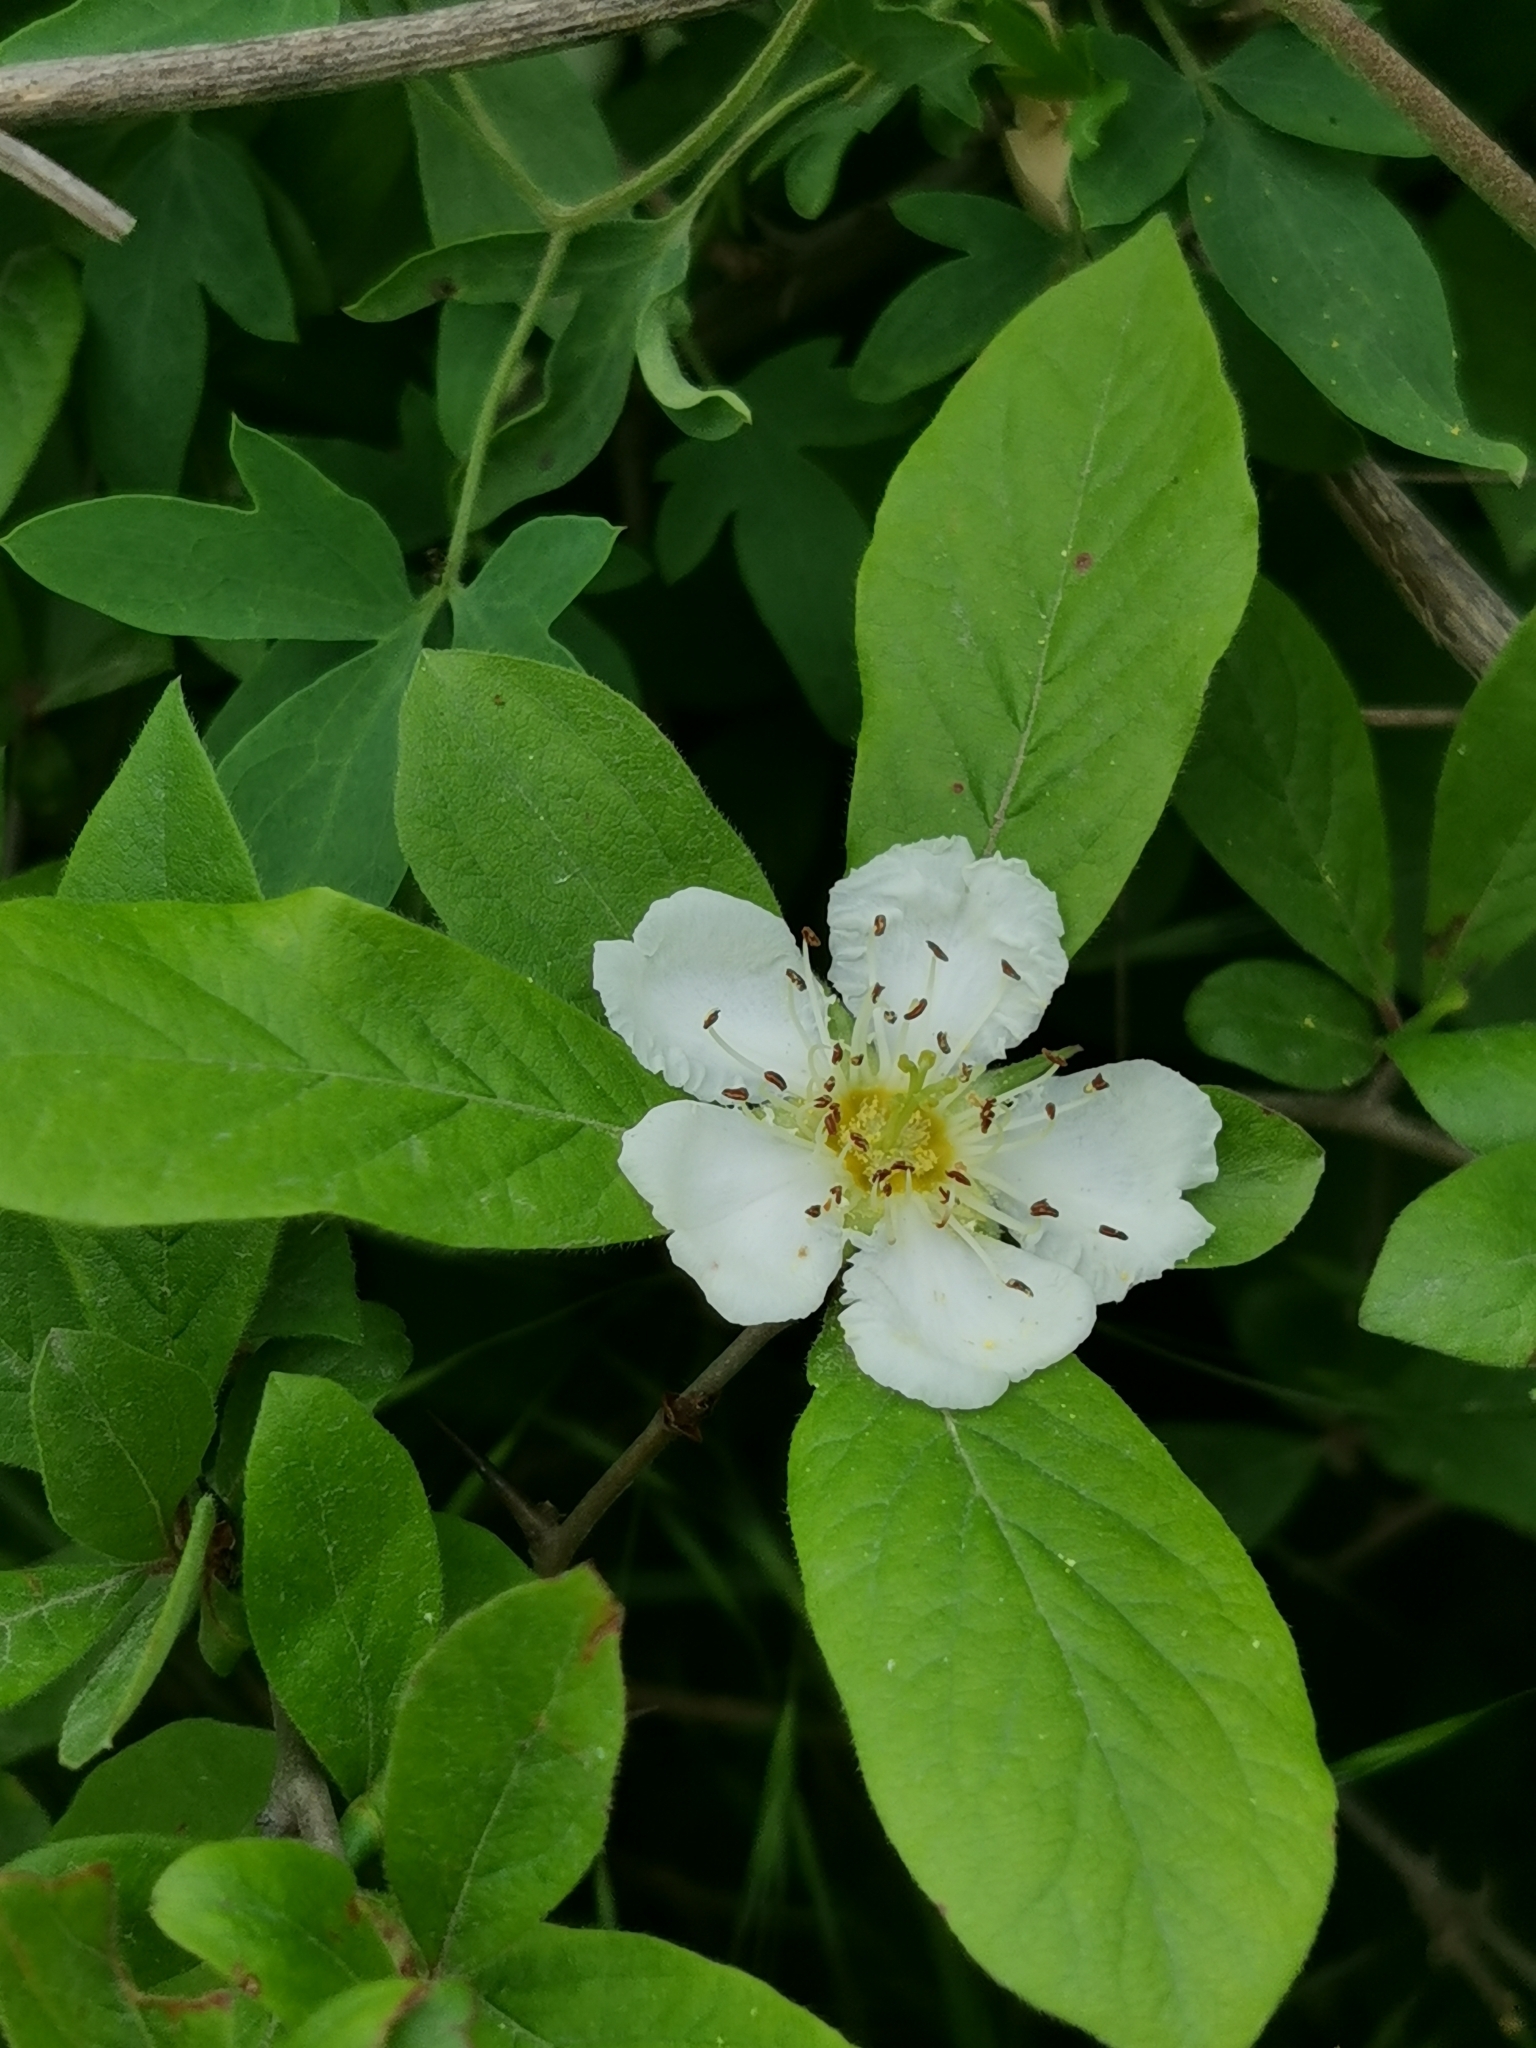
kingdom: Plantae
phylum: Tracheophyta
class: Magnoliopsida
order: Rosales
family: Rosaceae
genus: Mespilus
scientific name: Mespilus germanica
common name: Medlar
